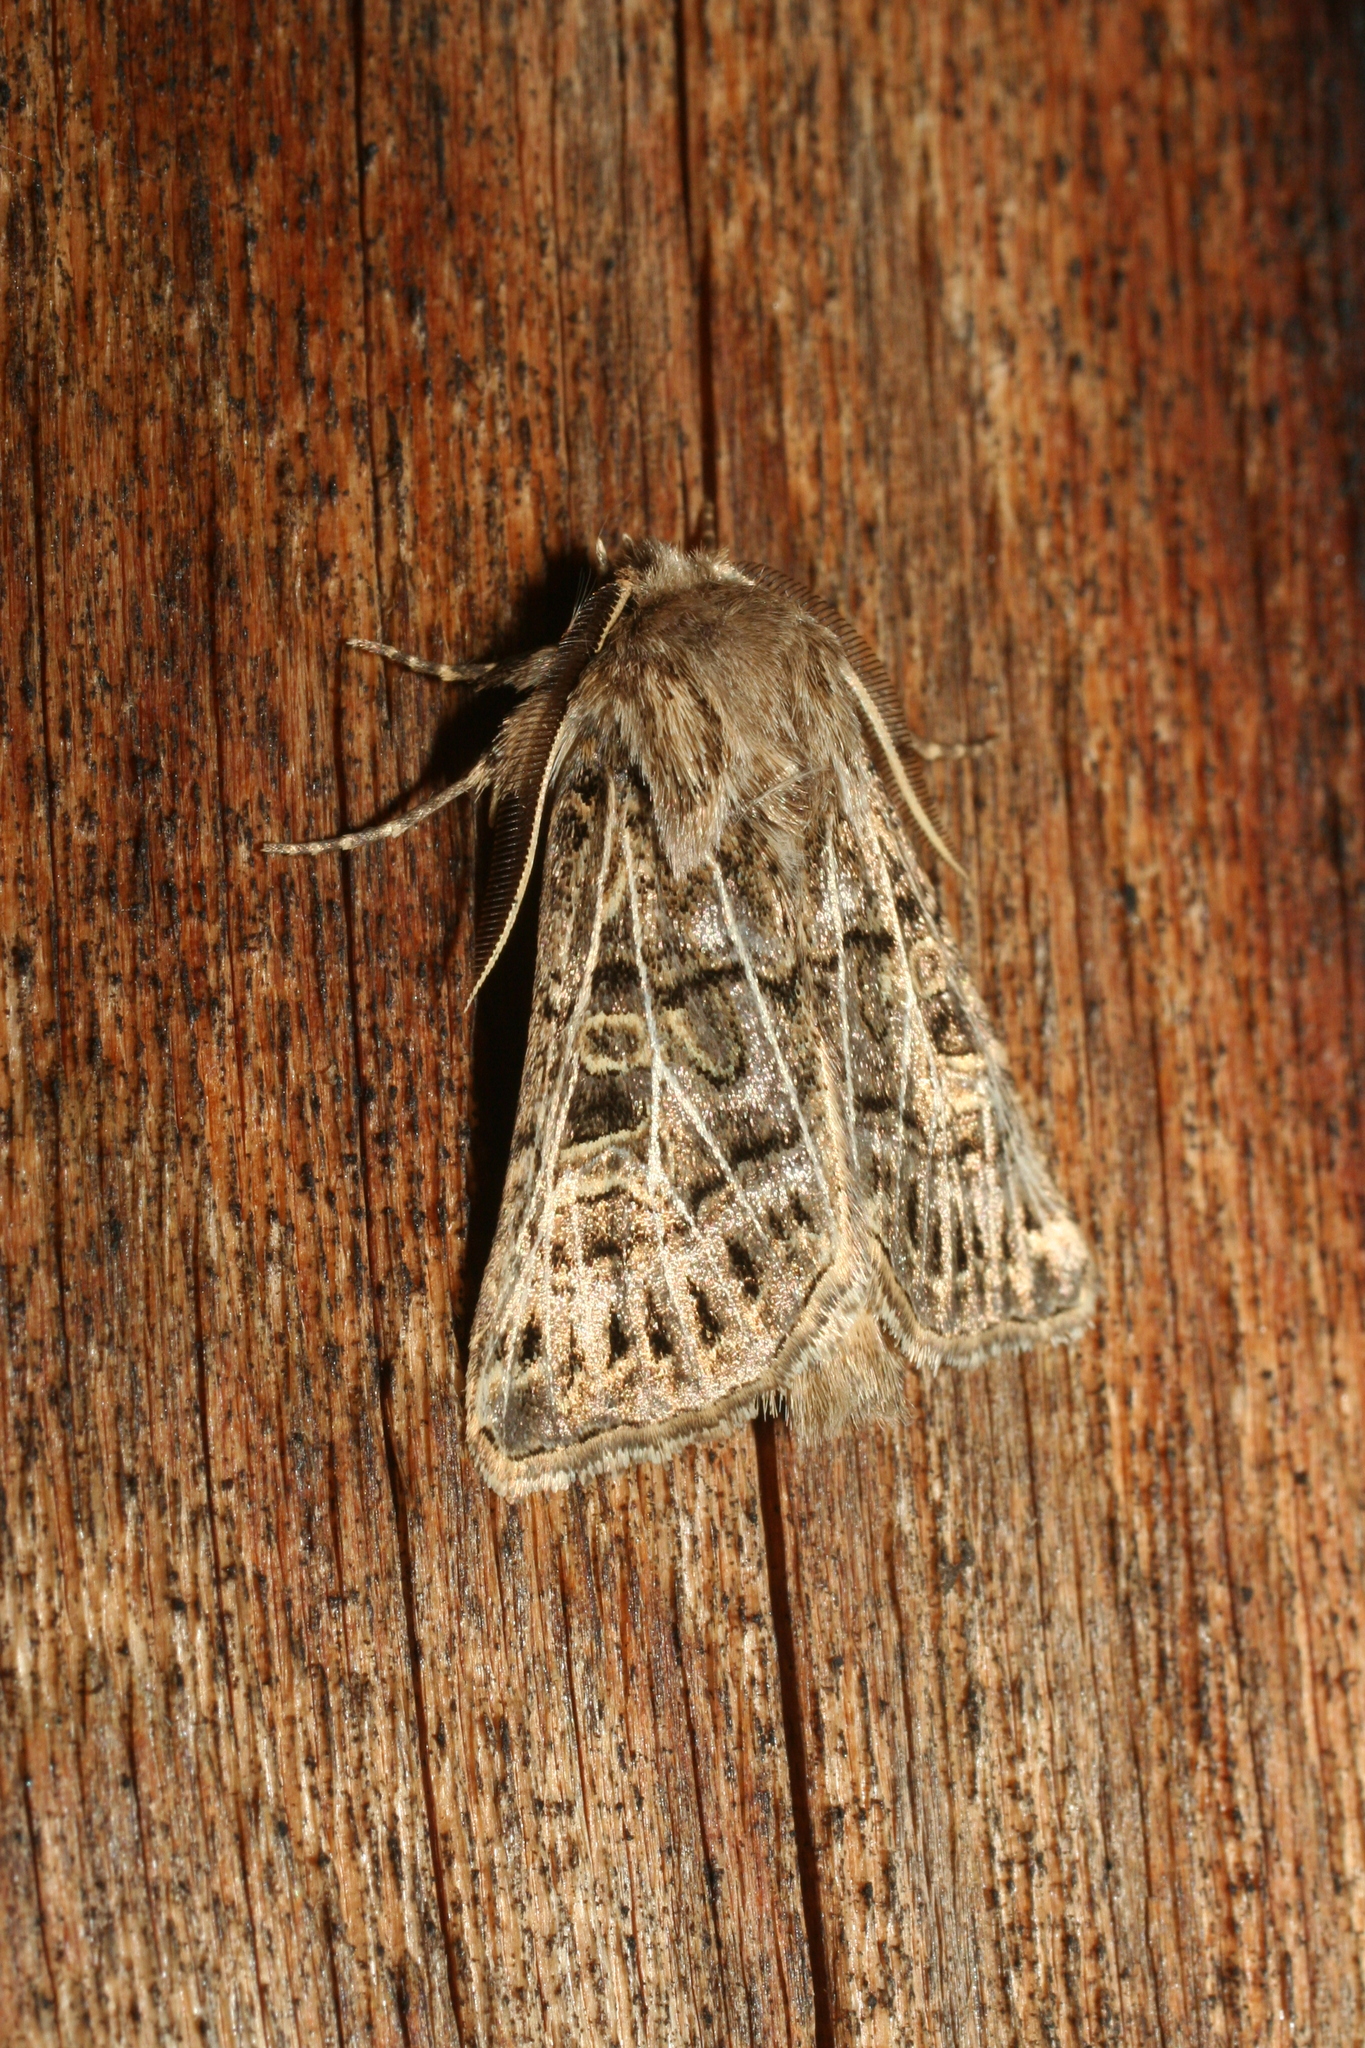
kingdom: Animalia
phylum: Arthropoda
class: Insecta
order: Lepidoptera
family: Noctuidae
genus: Tholera
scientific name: Tholera decimalis
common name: Feathered gothic
